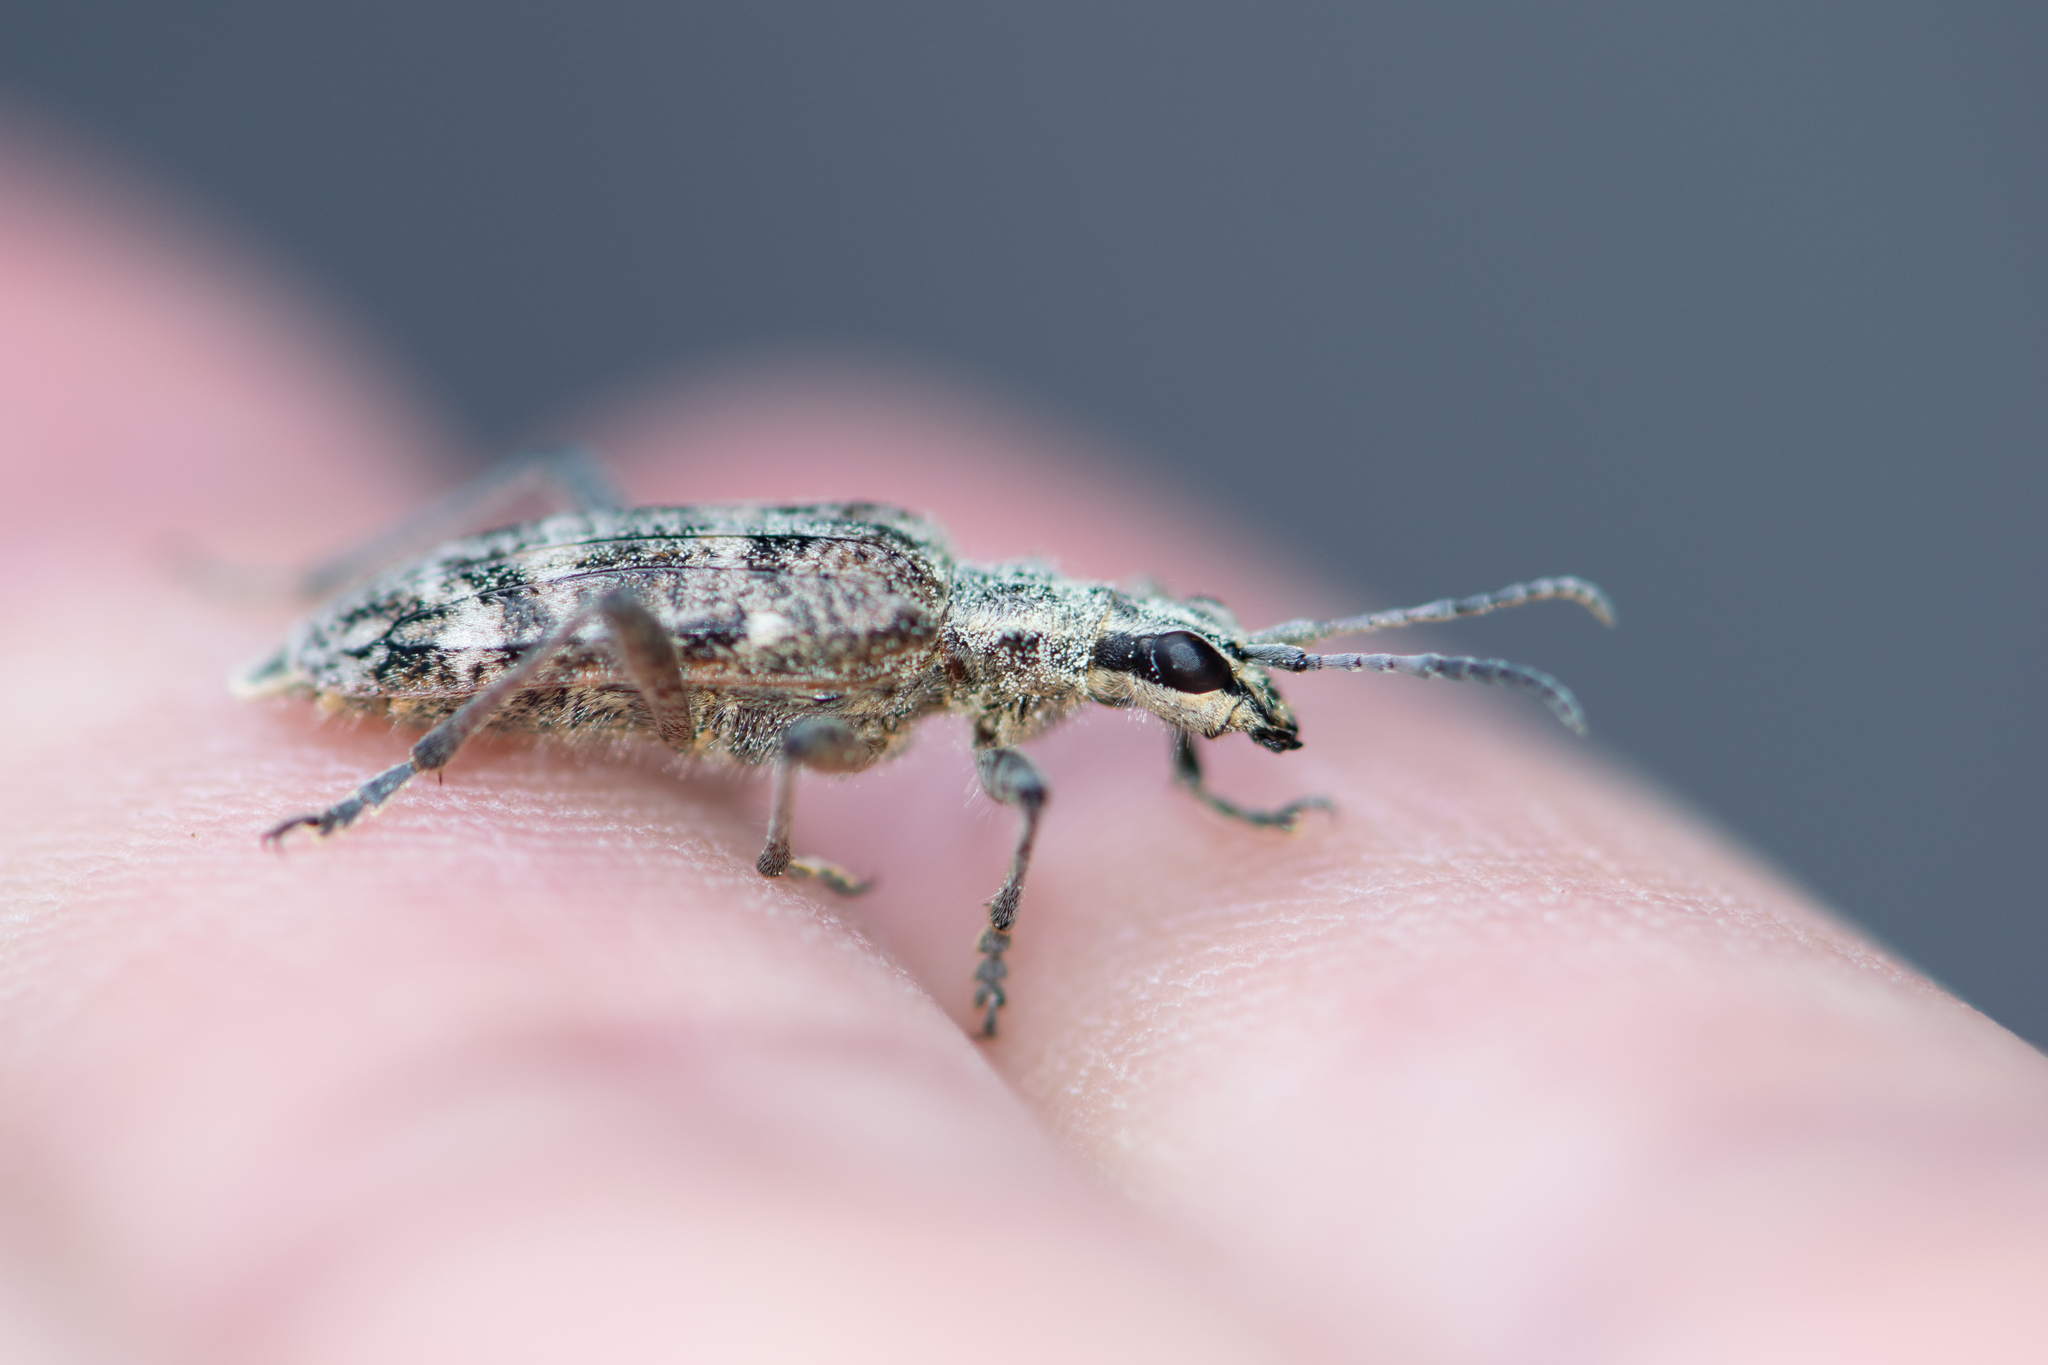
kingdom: Animalia
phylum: Arthropoda
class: Insecta
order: Coleoptera
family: Cerambycidae
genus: Rhagium
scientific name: Rhagium inquisitor
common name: Ribbed pine borer
